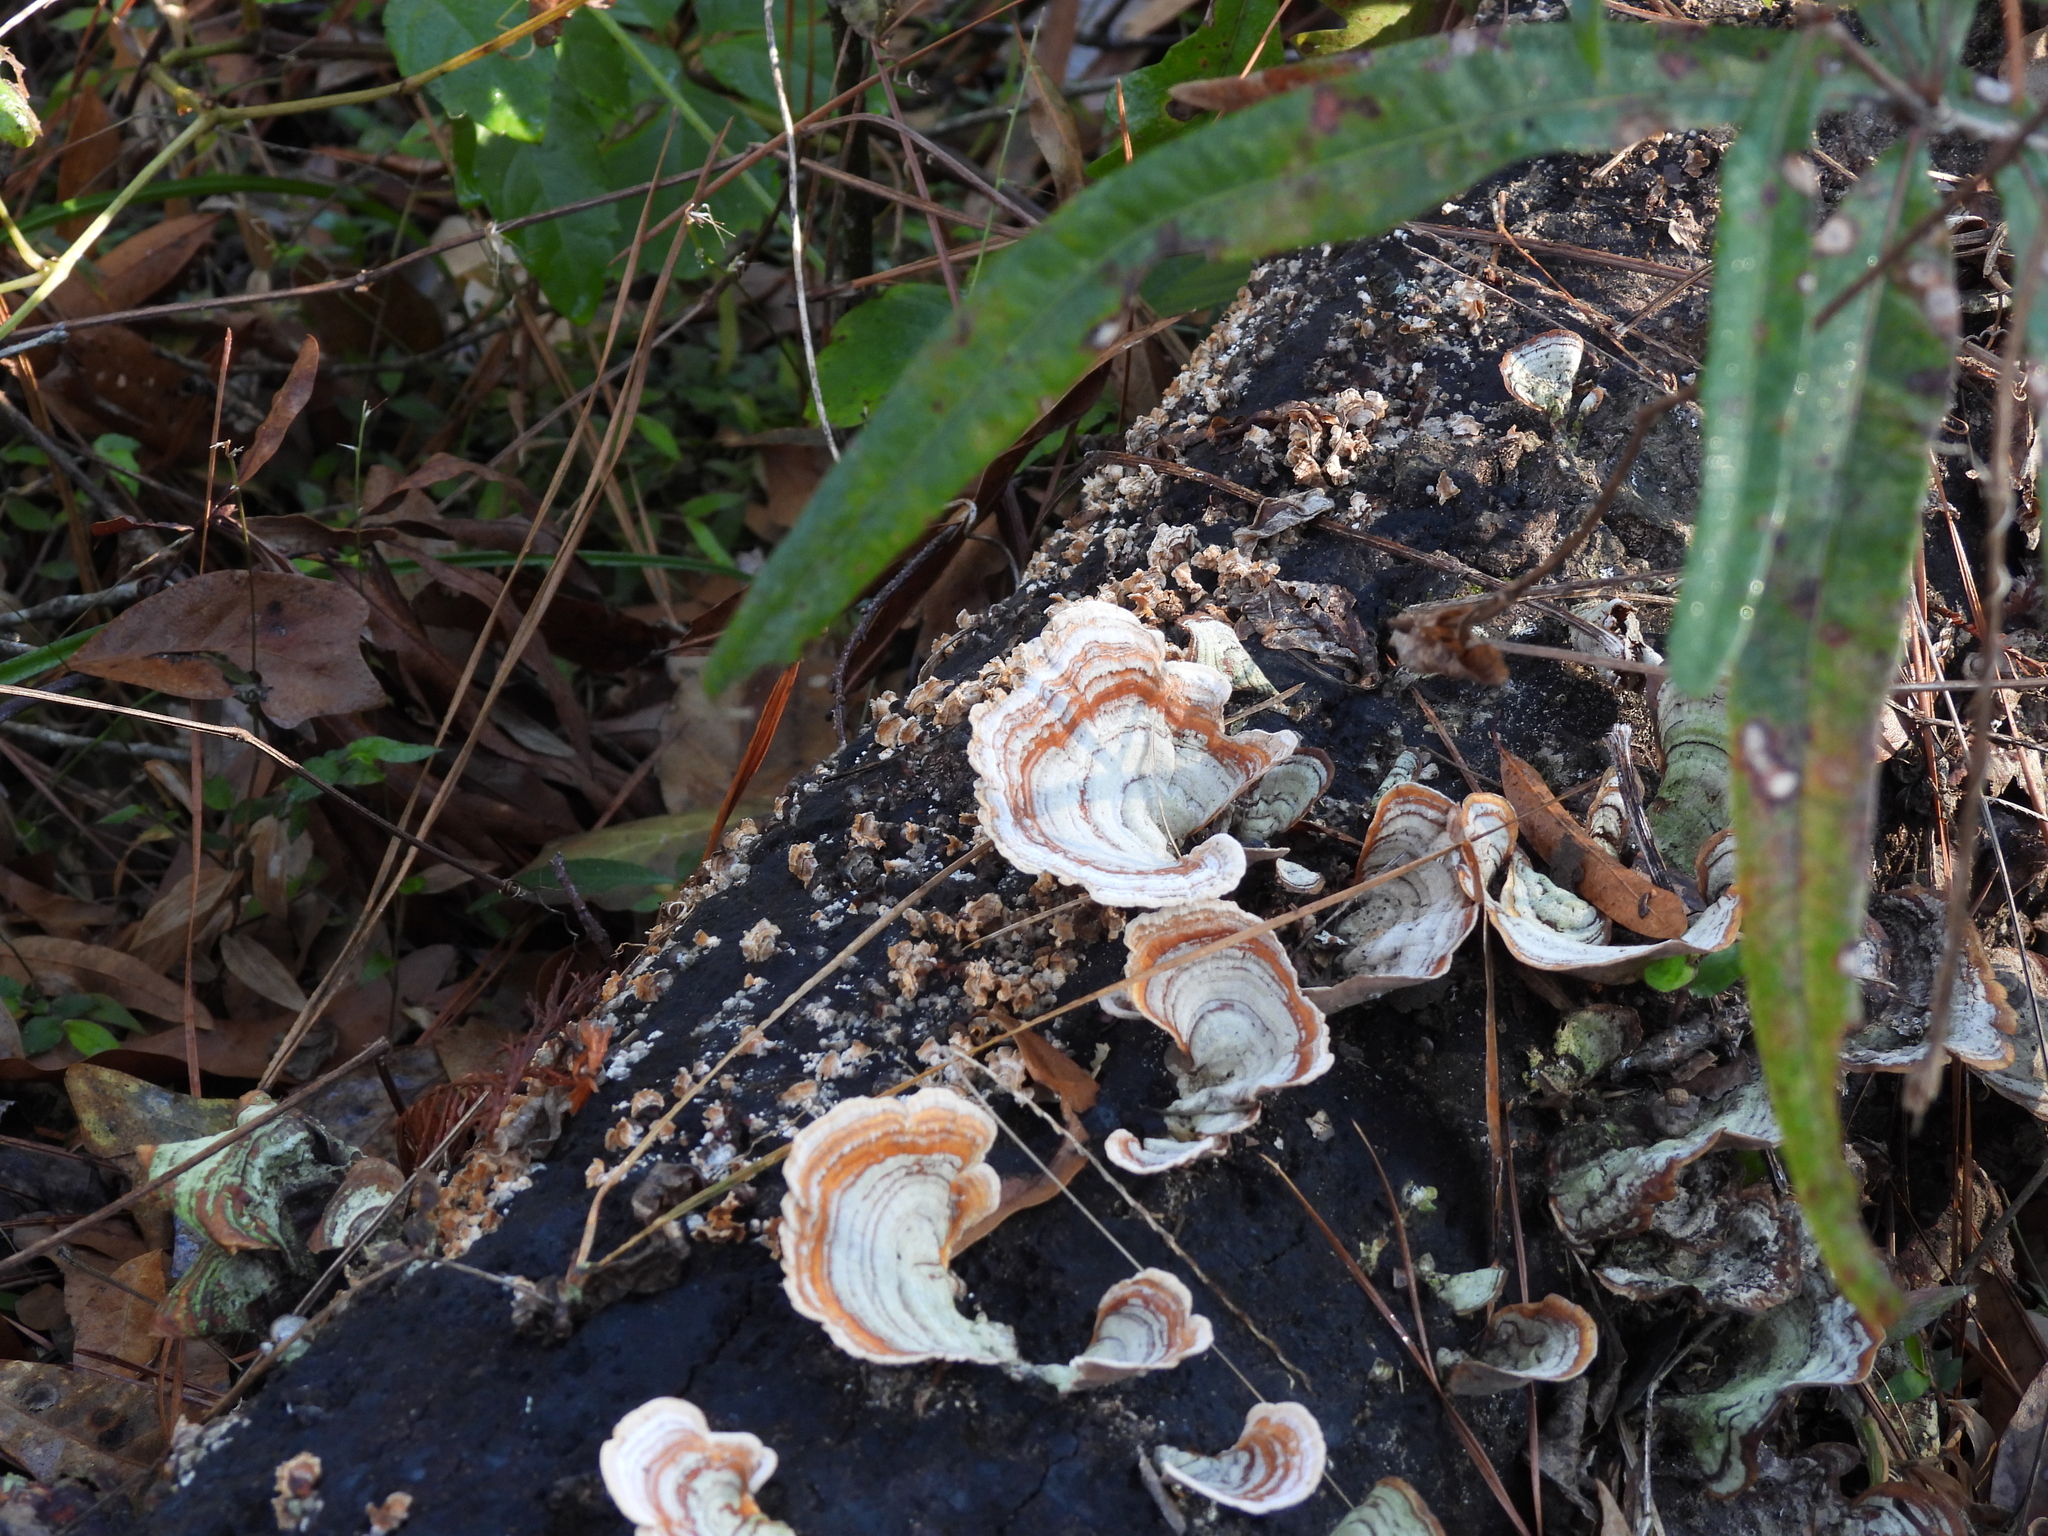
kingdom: Fungi
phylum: Basidiomycota
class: Agaricomycetes
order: Russulales
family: Stereaceae
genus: Stereum
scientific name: Stereum lobatum
